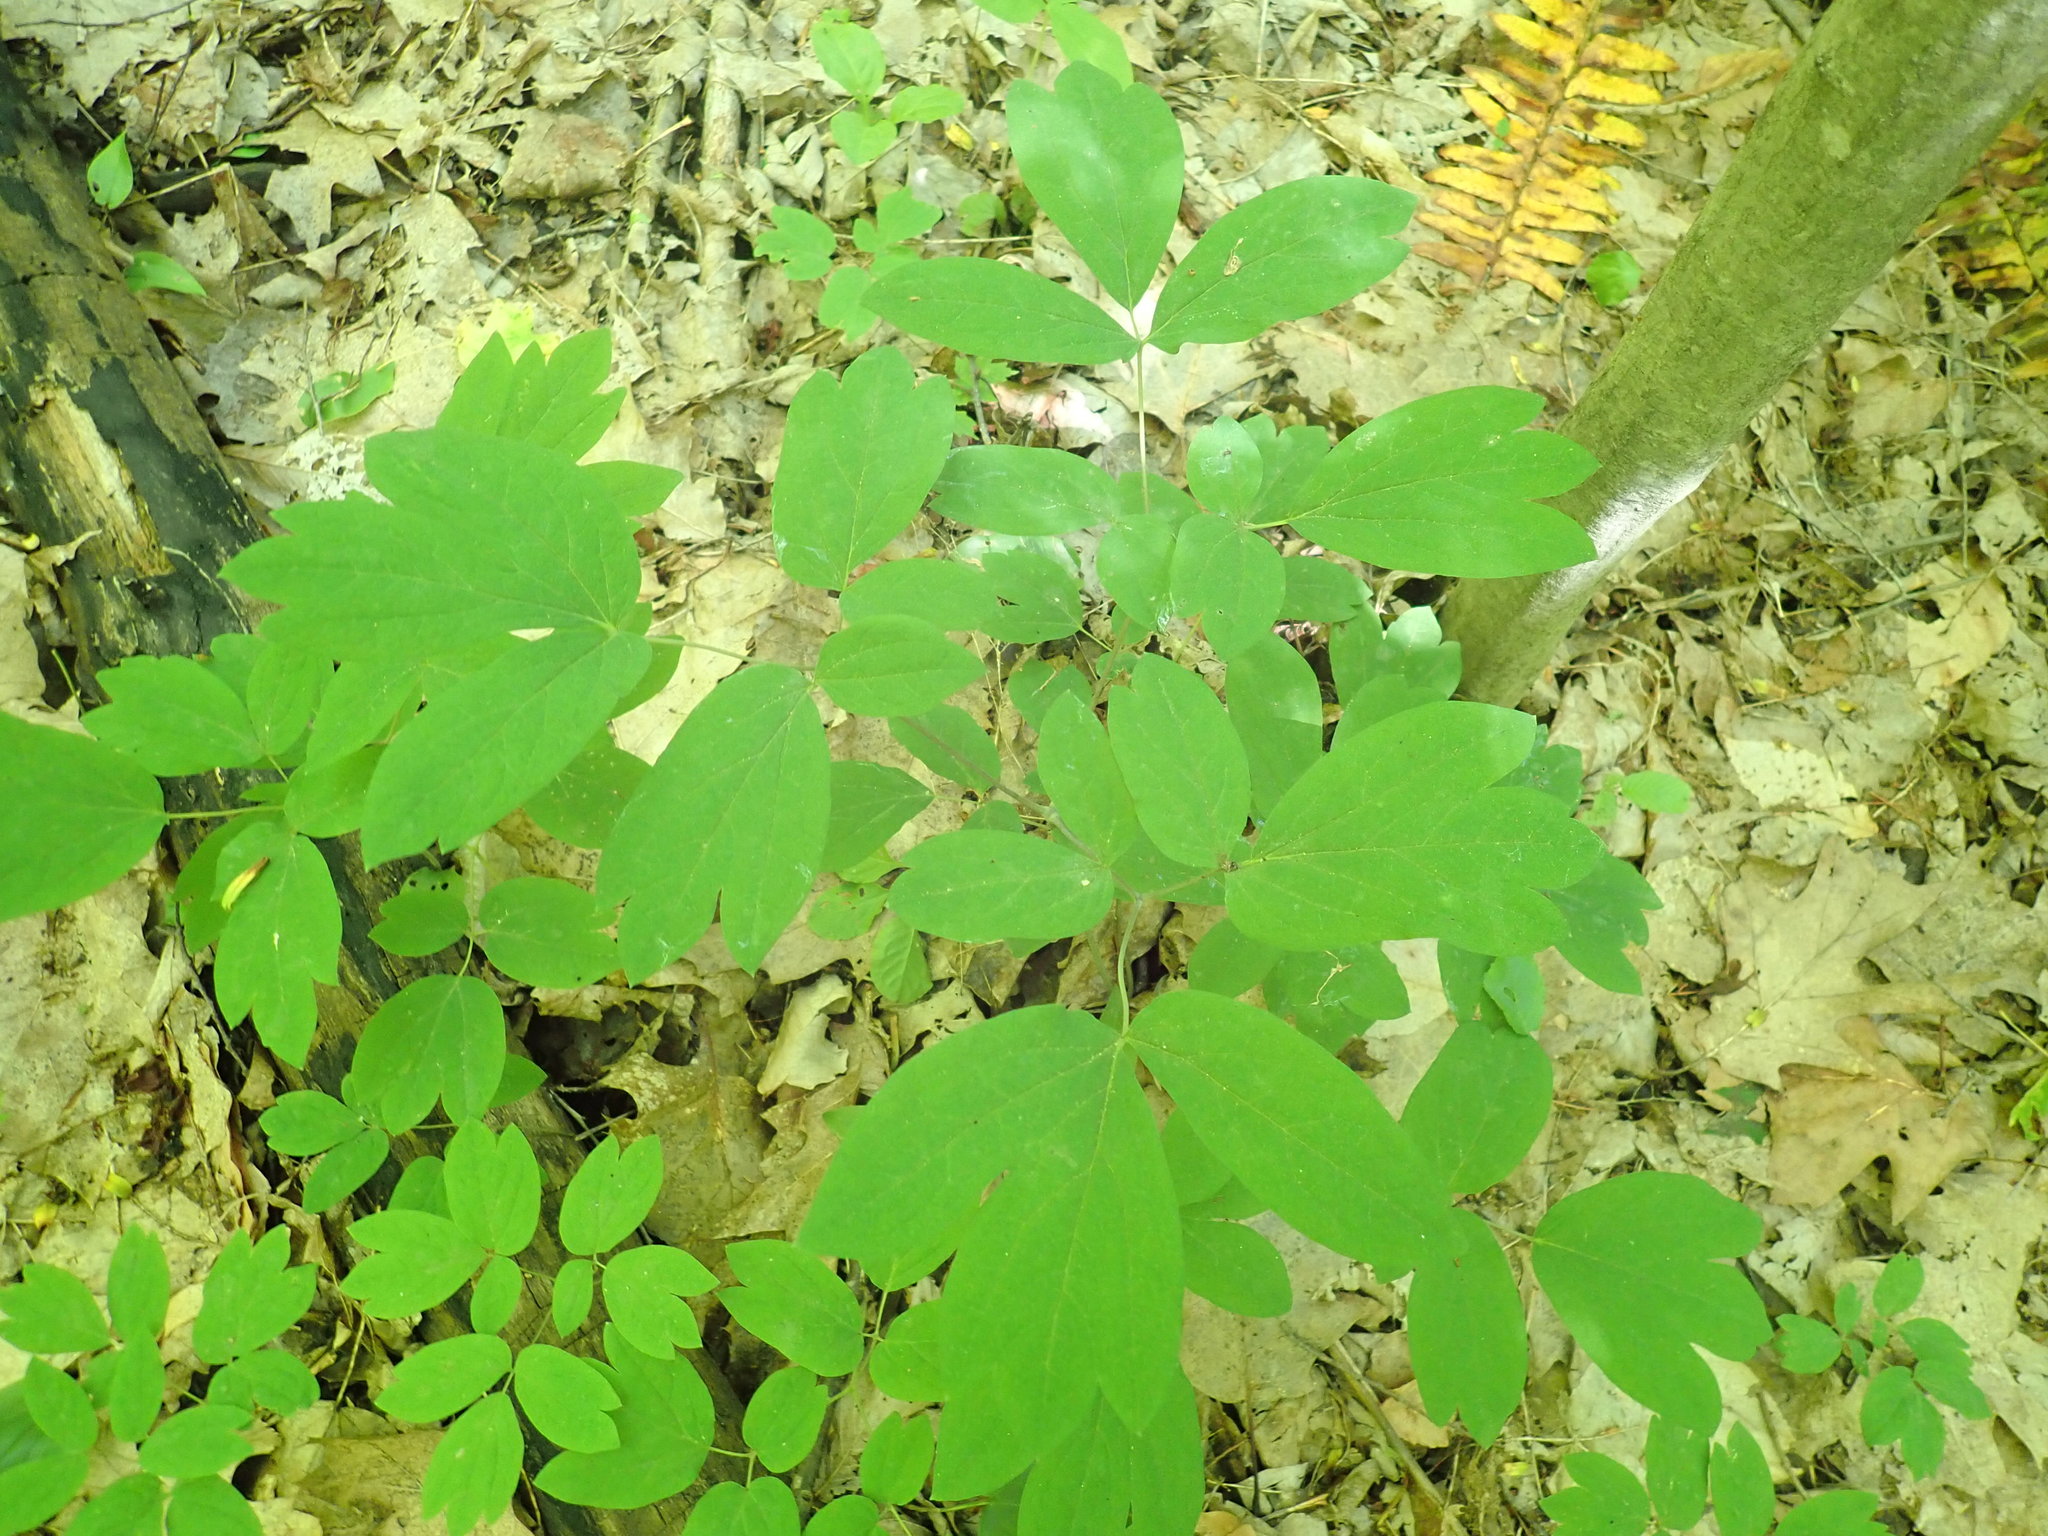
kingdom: Plantae
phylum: Tracheophyta
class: Magnoliopsida
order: Ranunculales
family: Berberidaceae
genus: Caulophyllum
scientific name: Caulophyllum
